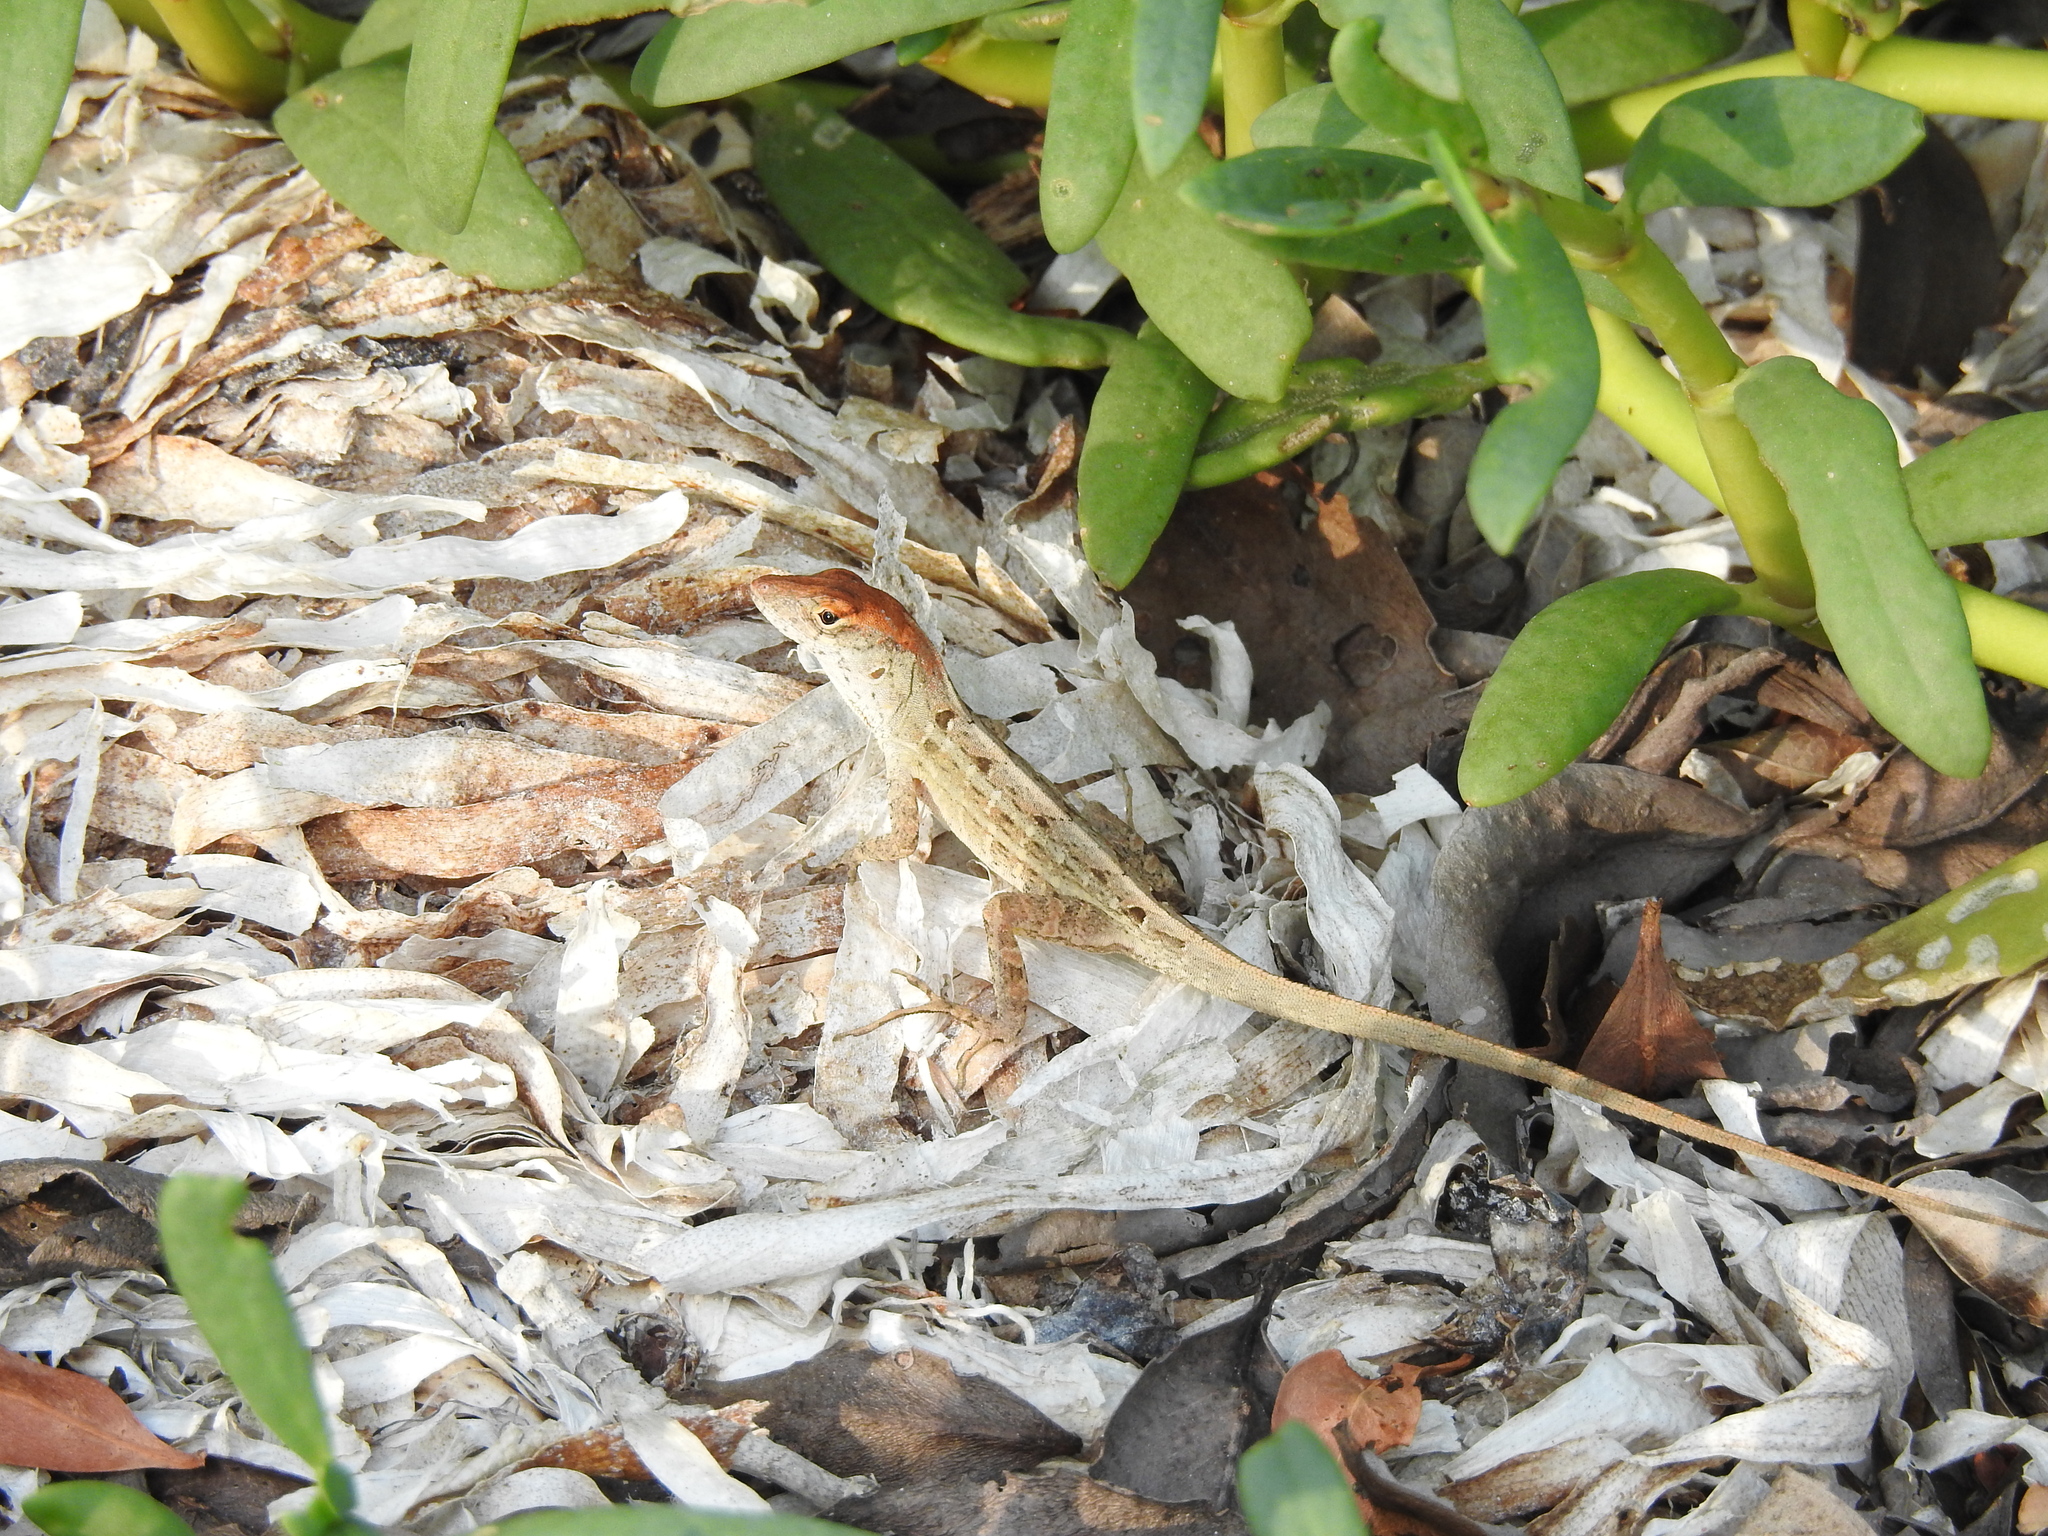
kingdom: Animalia
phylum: Chordata
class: Squamata
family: Dactyloidae
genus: Anolis
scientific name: Anolis sagrei
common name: Brown anole
